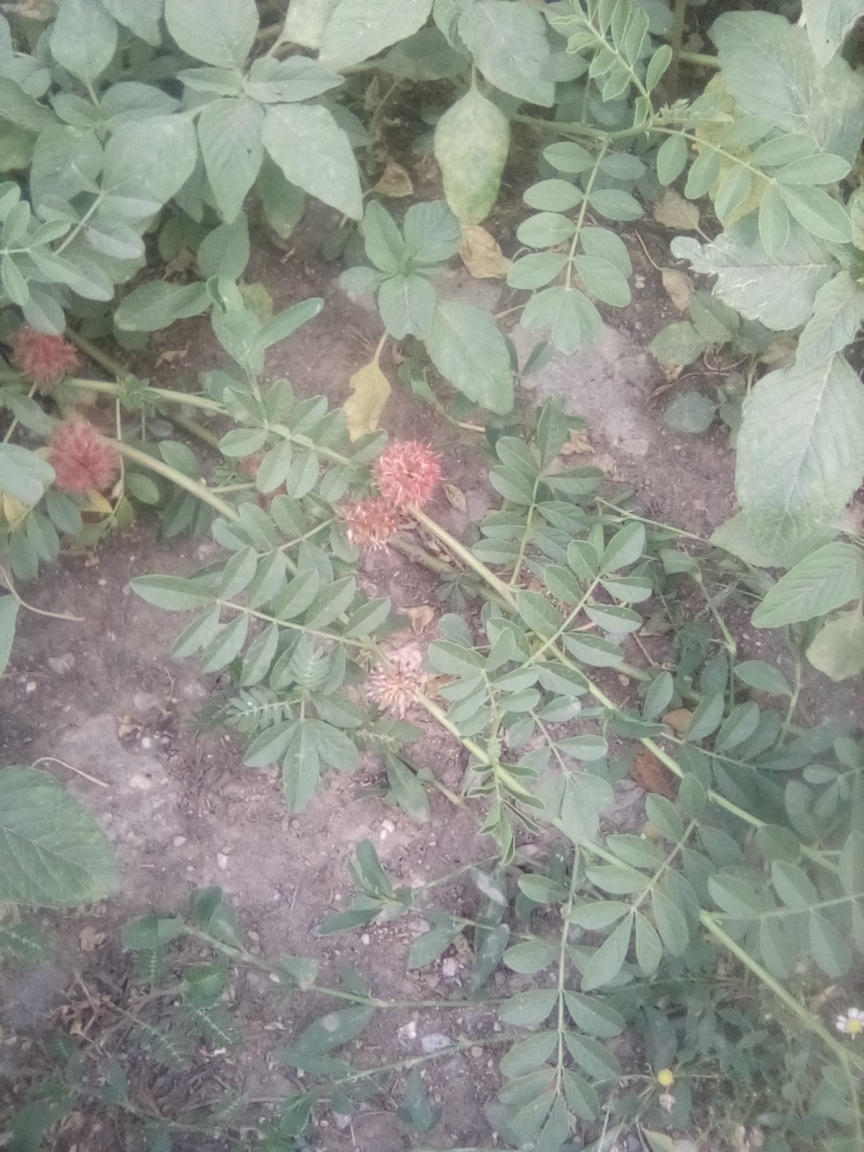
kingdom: Plantae
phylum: Tracheophyta
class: Magnoliopsida
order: Fabales
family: Fabaceae
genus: Glycyrrhiza
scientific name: Glycyrrhiza echinata
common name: German liquorice
